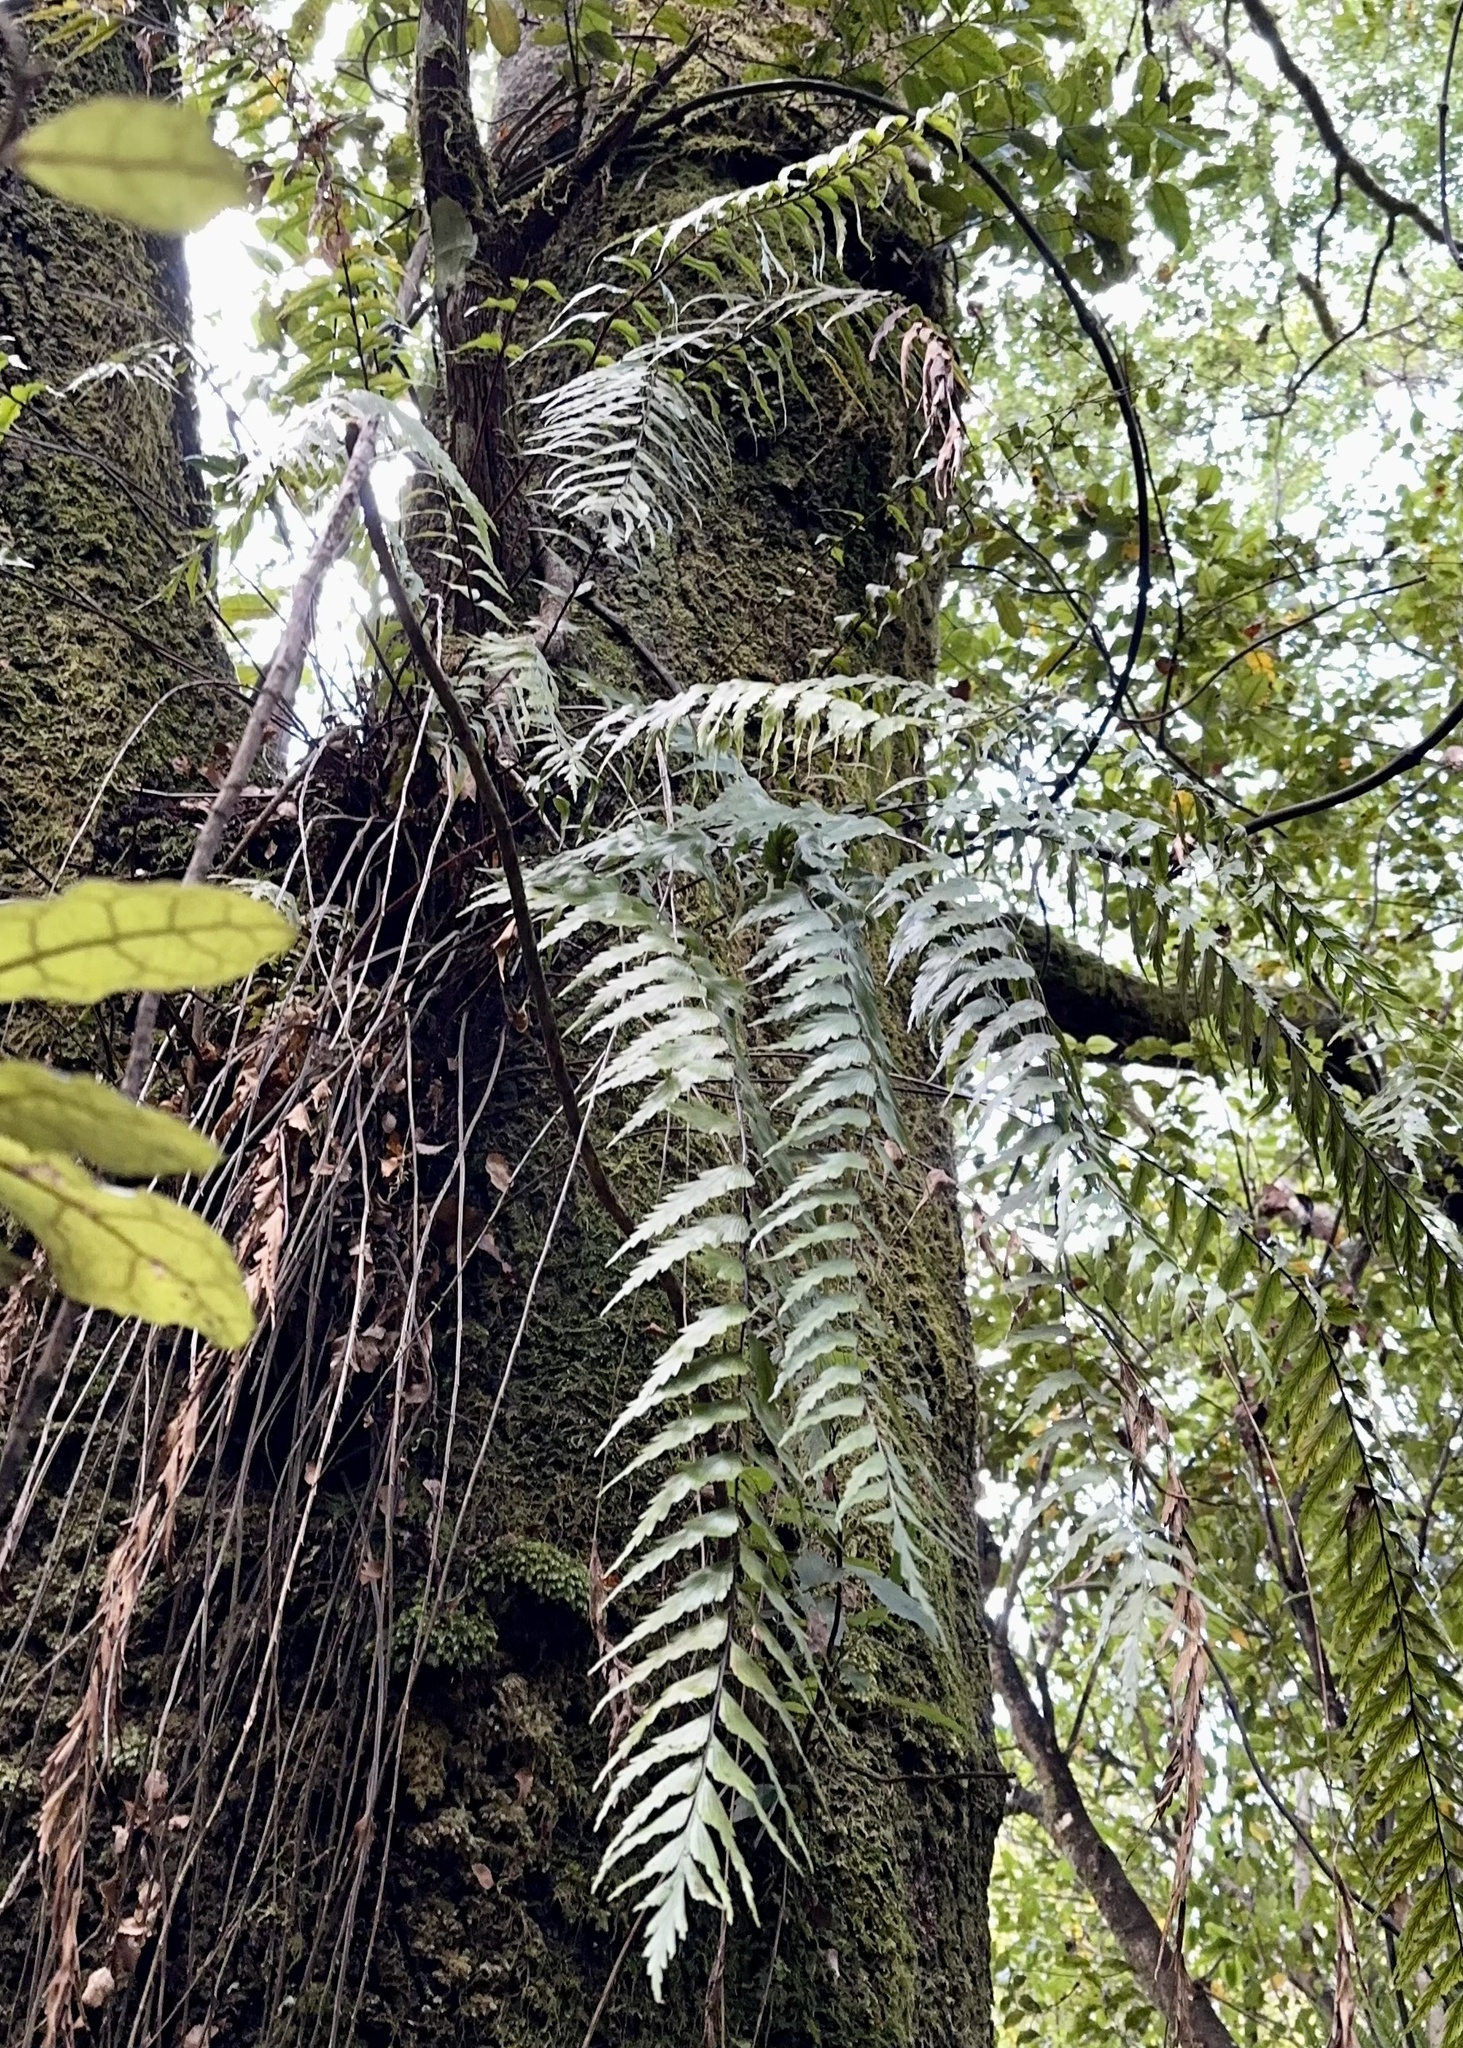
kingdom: Plantae
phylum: Tracheophyta
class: Polypodiopsida
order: Polypodiales
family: Aspleniaceae
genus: Asplenium
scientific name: Asplenium polyodon
